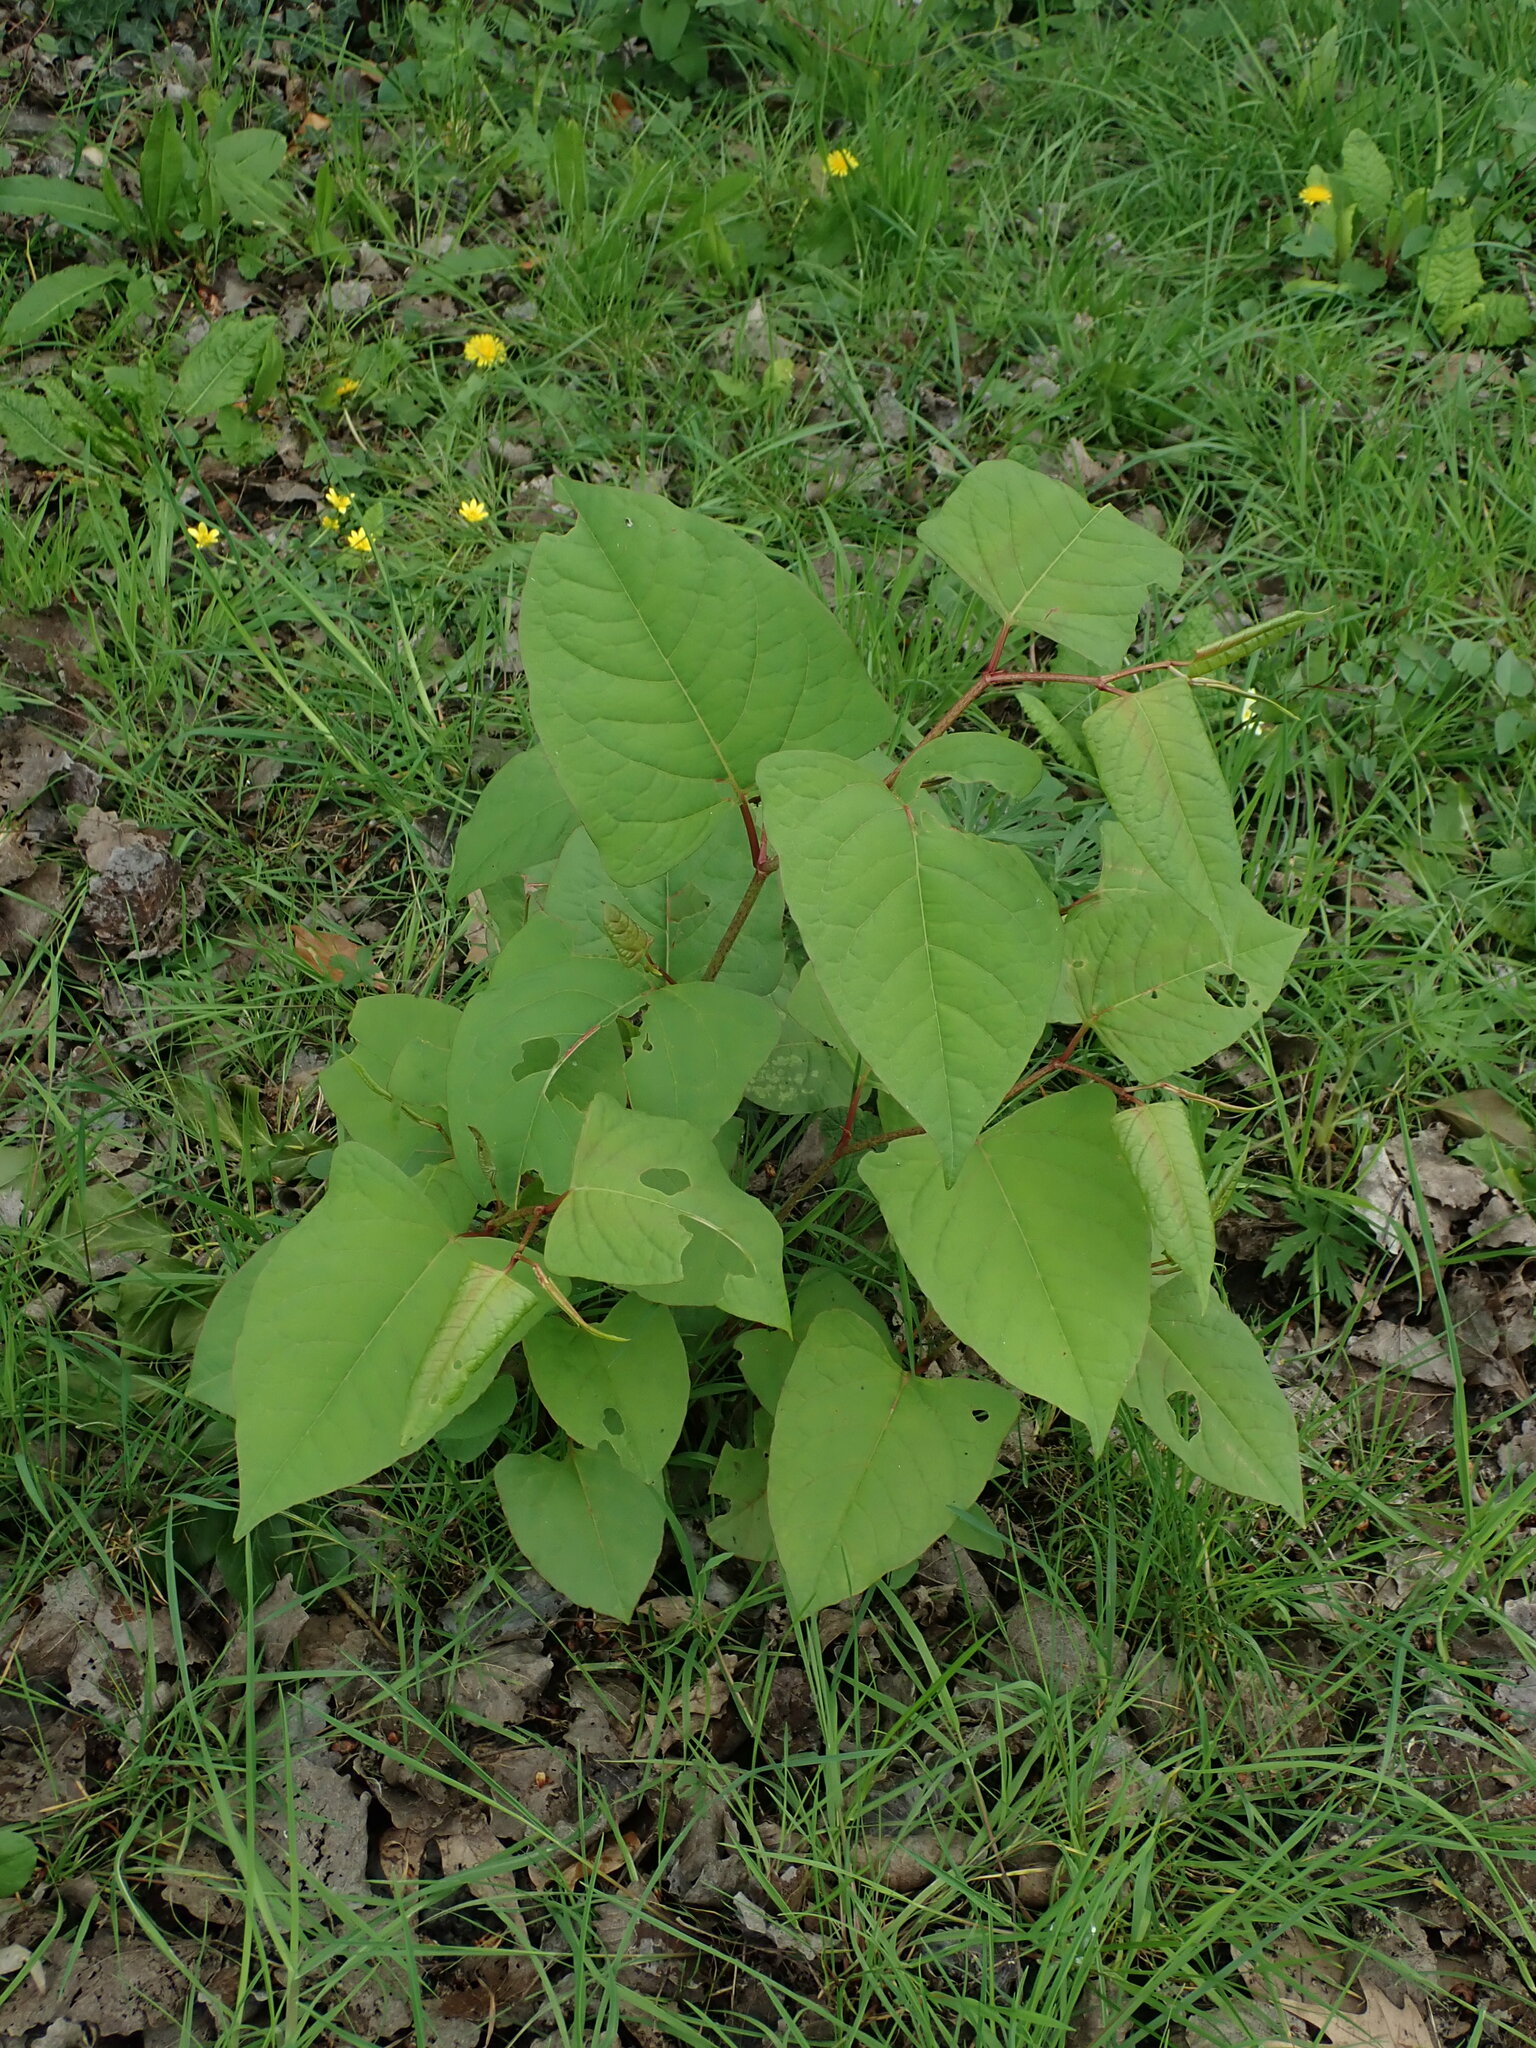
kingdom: Plantae
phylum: Tracheophyta
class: Magnoliopsida
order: Caryophyllales
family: Polygonaceae
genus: Reynoutria
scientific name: Reynoutria japonica
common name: Japanese knotweed
